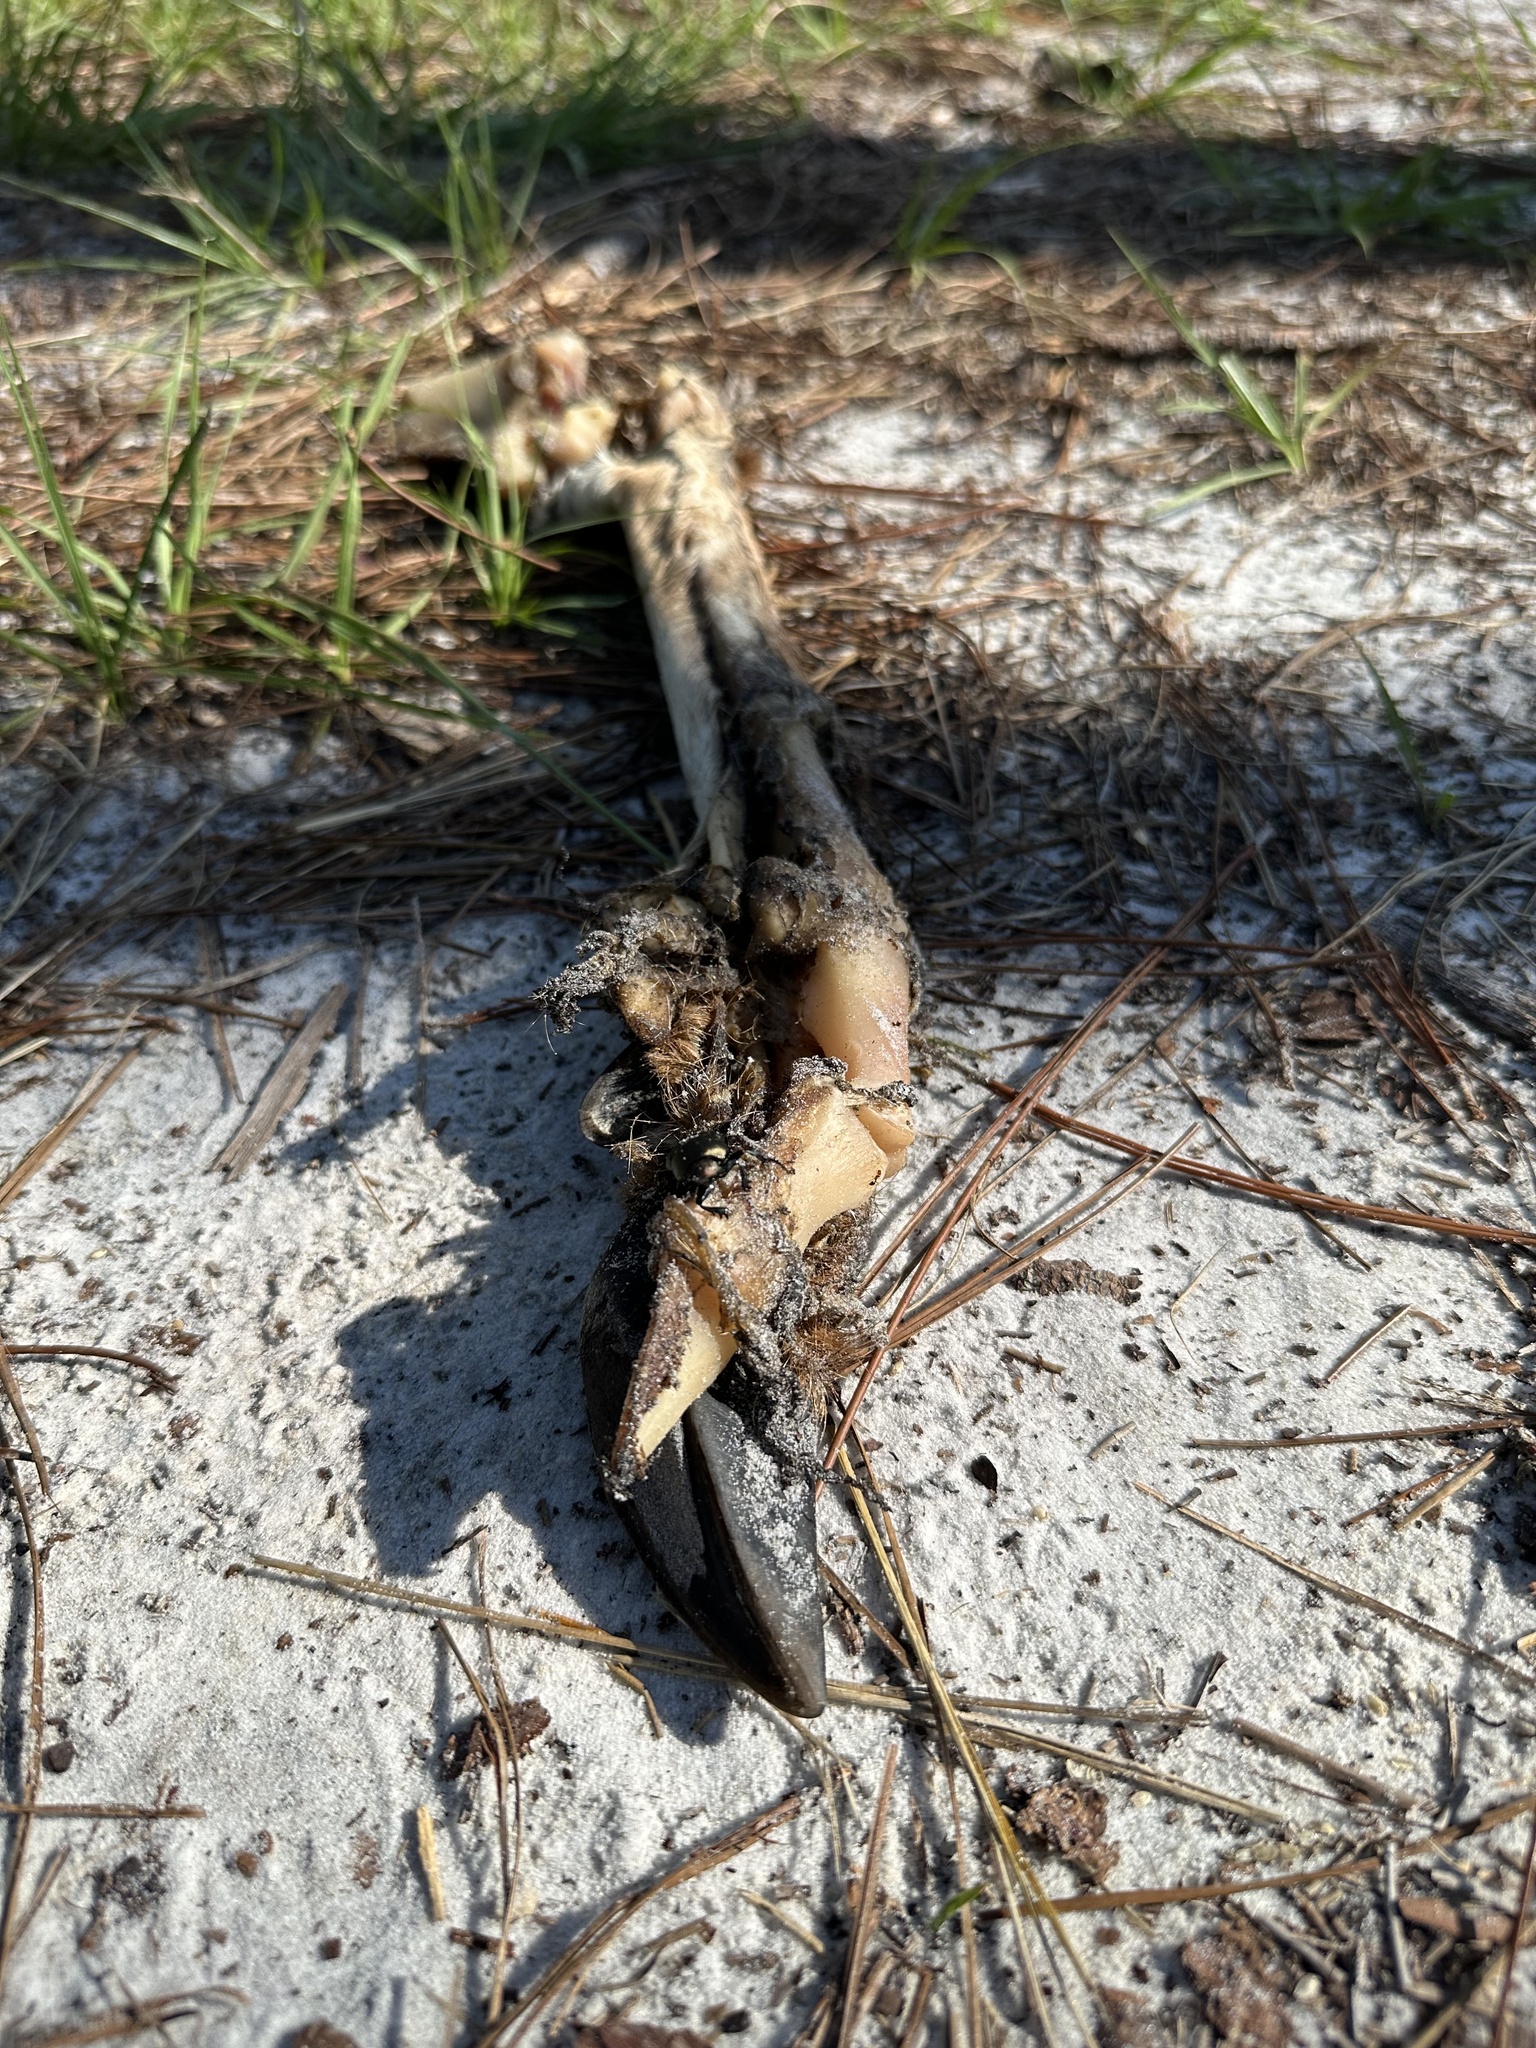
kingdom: Animalia
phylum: Chordata
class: Mammalia
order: Artiodactyla
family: Cervidae
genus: Odocoileus
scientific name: Odocoileus virginianus
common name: White-tailed deer
